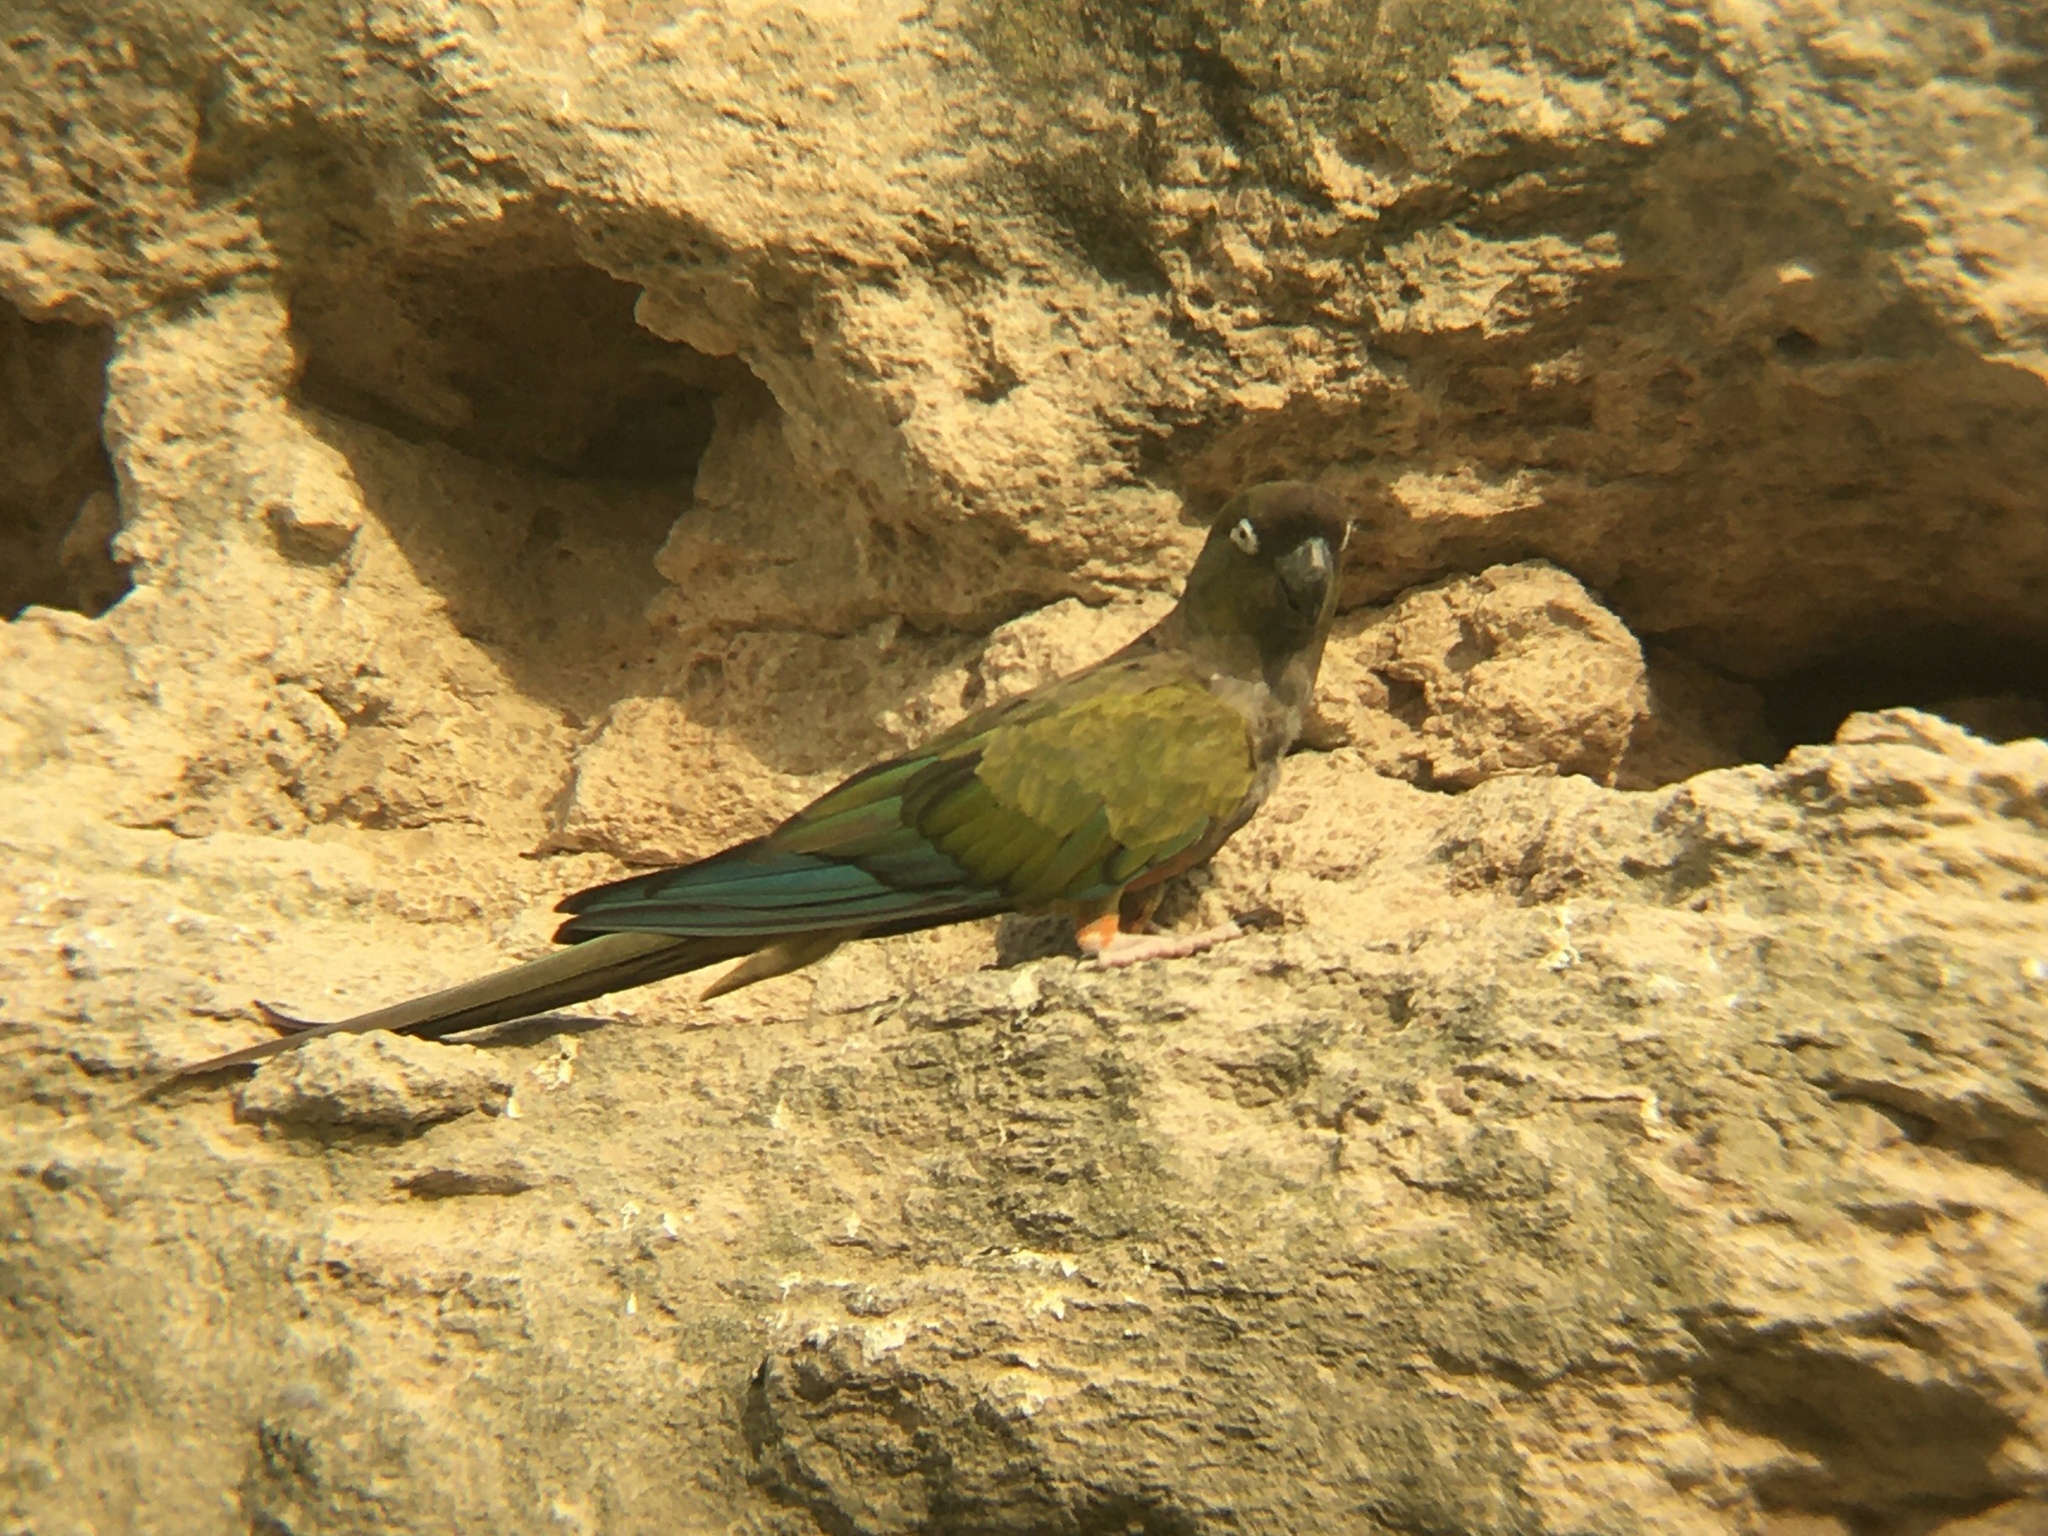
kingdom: Animalia
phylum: Chordata
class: Aves
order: Psittaciformes
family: Psittacidae
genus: Cyanoliseus
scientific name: Cyanoliseus patagonus
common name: Burrowing parrot
